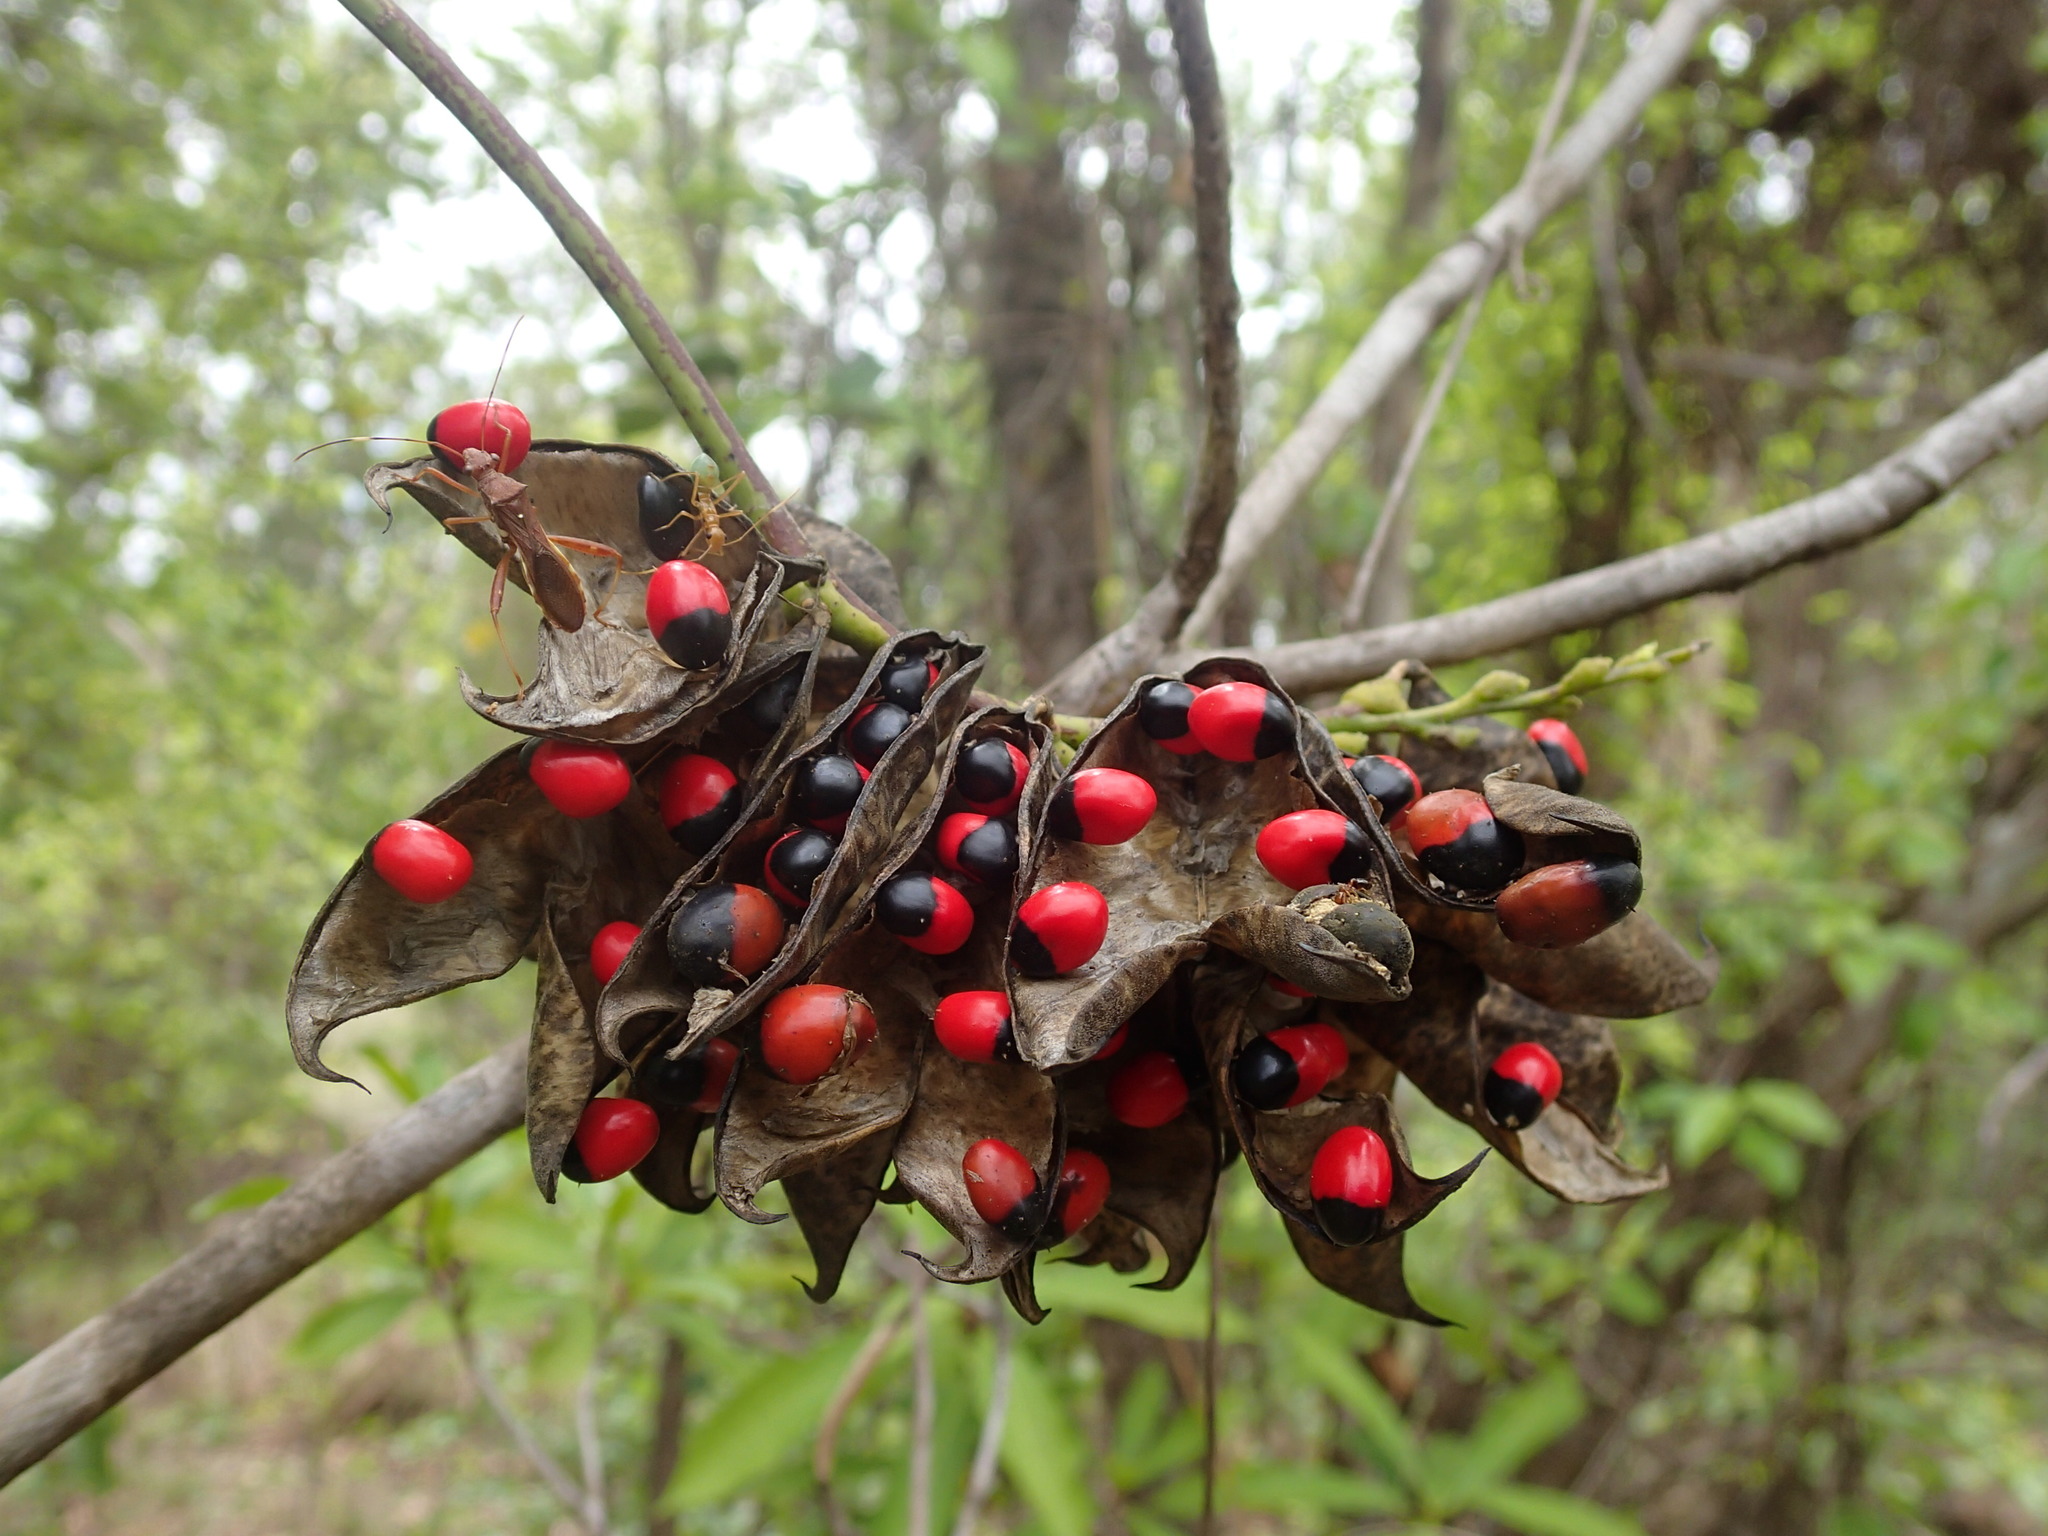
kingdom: Plantae
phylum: Tracheophyta
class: Magnoliopsida
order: Fabales
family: Fabaceae
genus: Abrus
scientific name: Abrus precatorius
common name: Rosarypea
